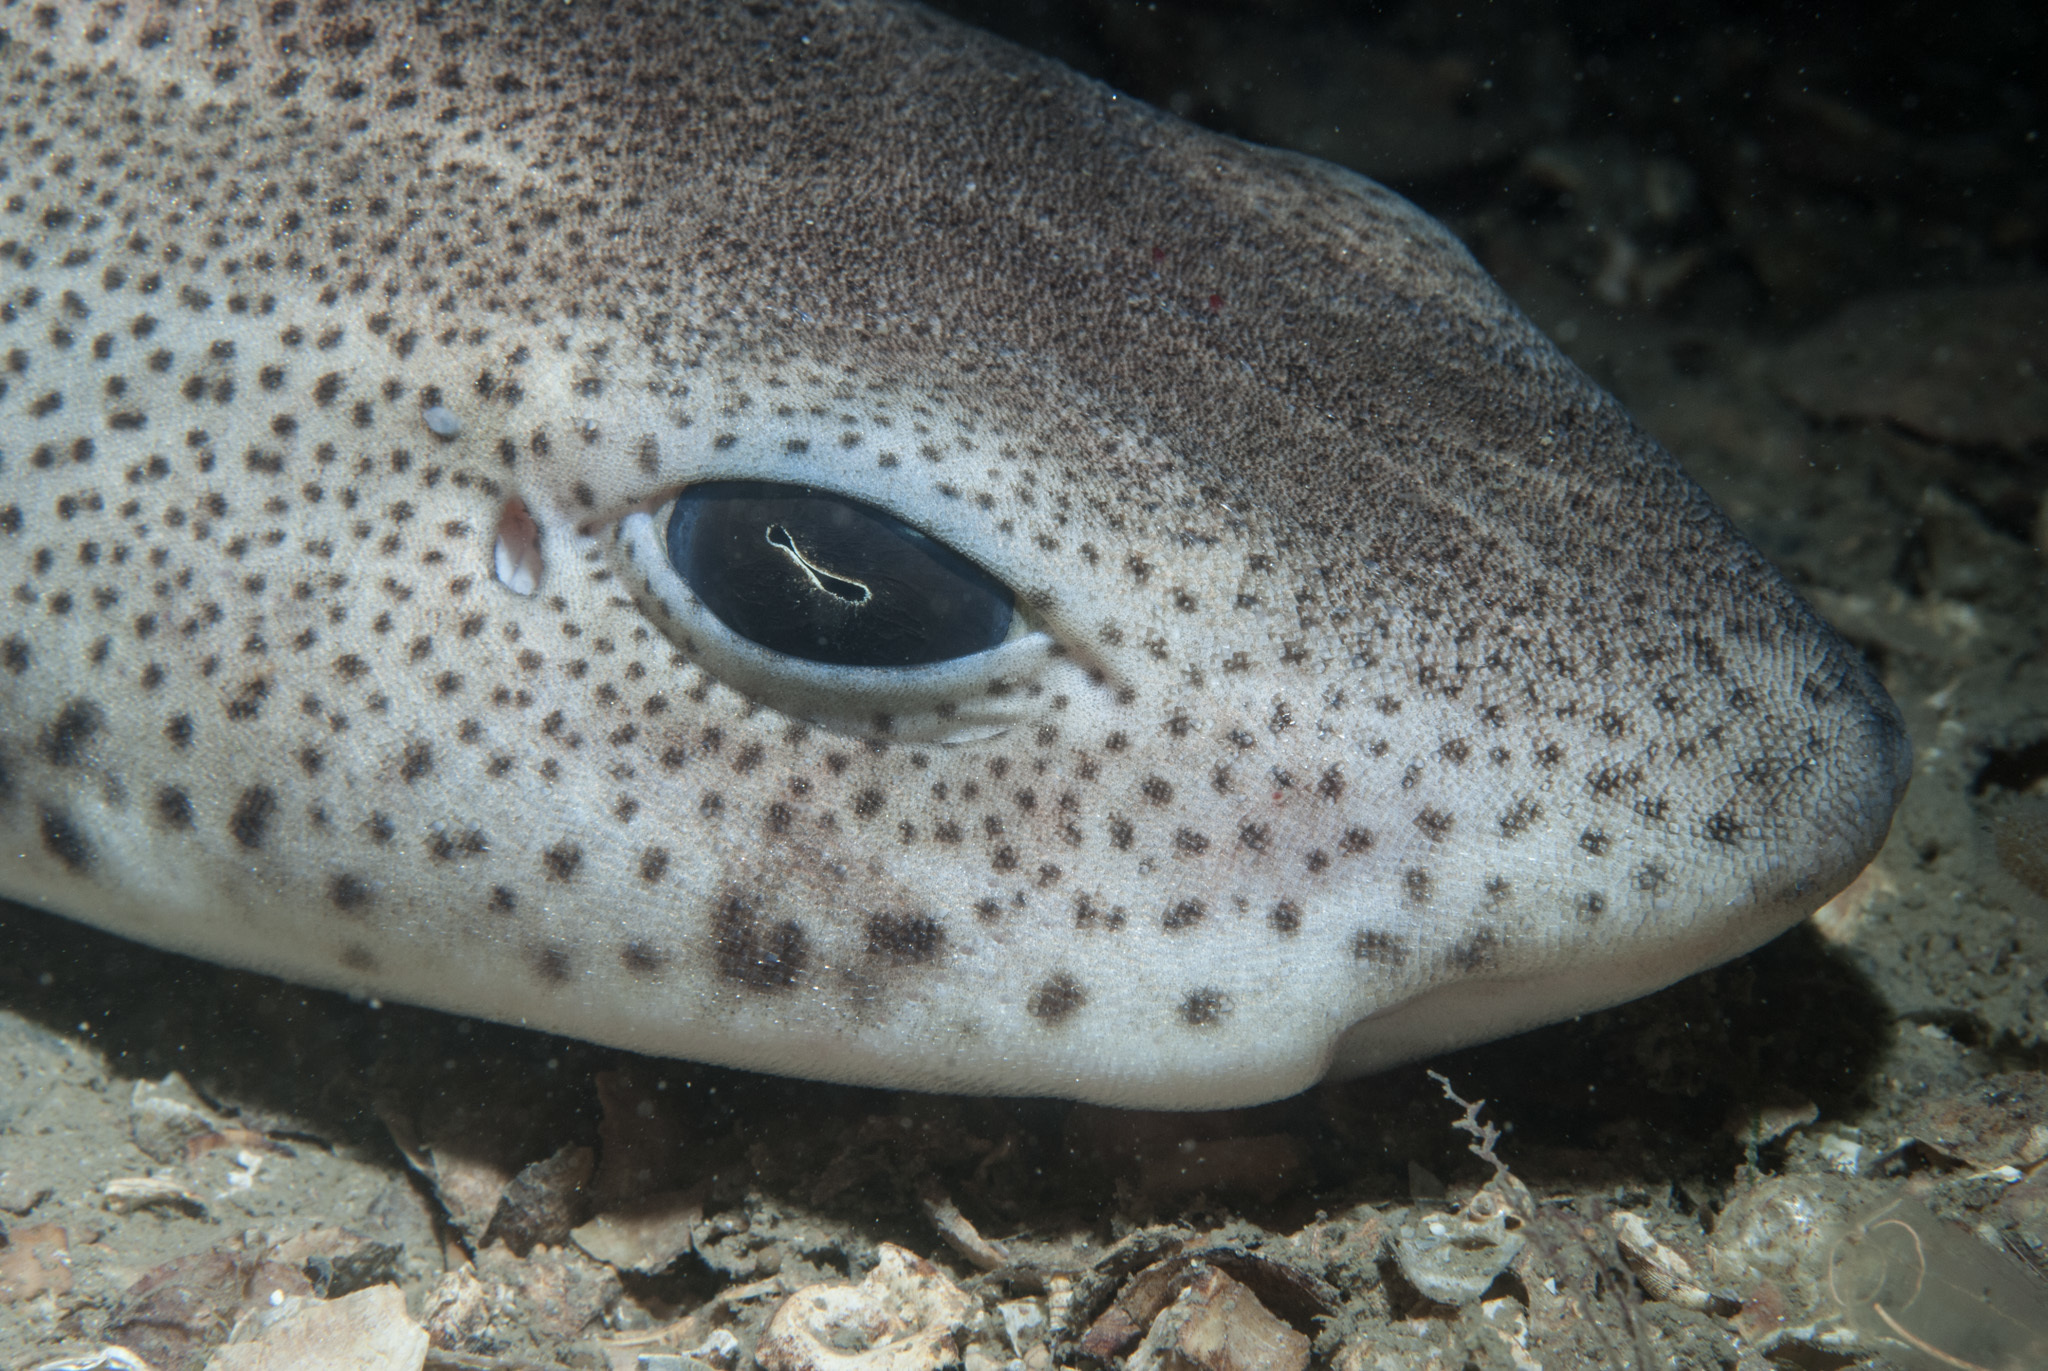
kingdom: Animalia
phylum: Chordata
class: Elasmobranchii
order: Carcharhiniformes
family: Scyliorhinidae
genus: Scyliorhinus
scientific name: Scyliorhinus canicula
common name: Lesser spotted dogfish
